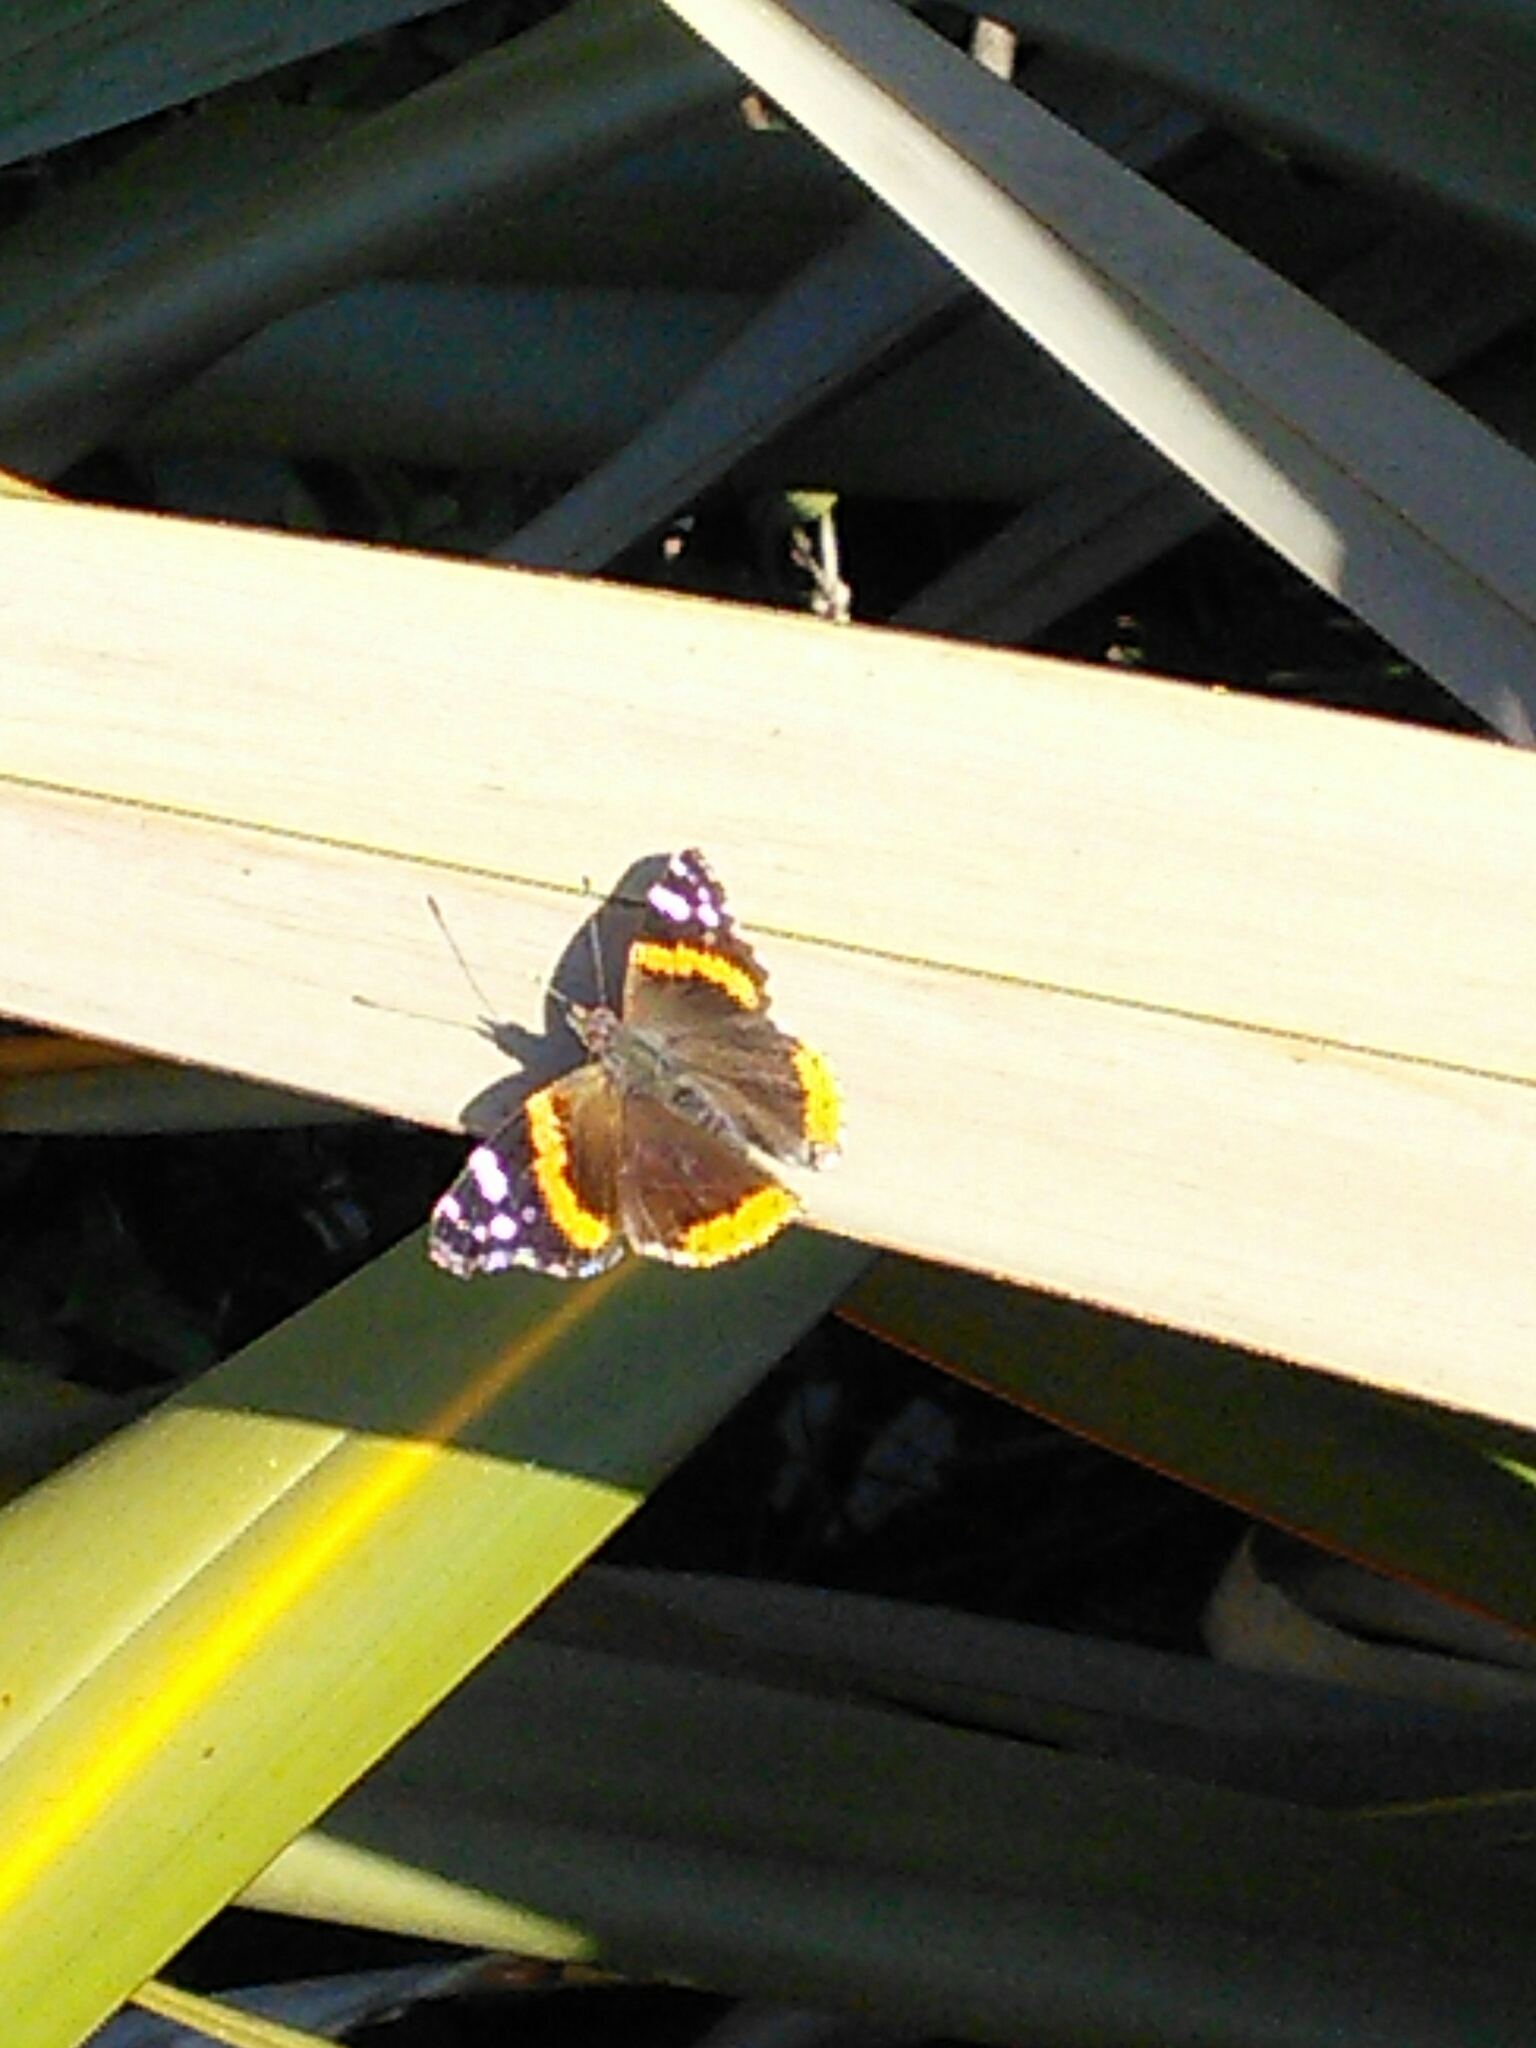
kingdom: Animalia
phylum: Arthropoda
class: Insecta
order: Lepidoptera
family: Nymphalidae
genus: Vanessa
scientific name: Vanessa atalanta
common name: Red admiral
